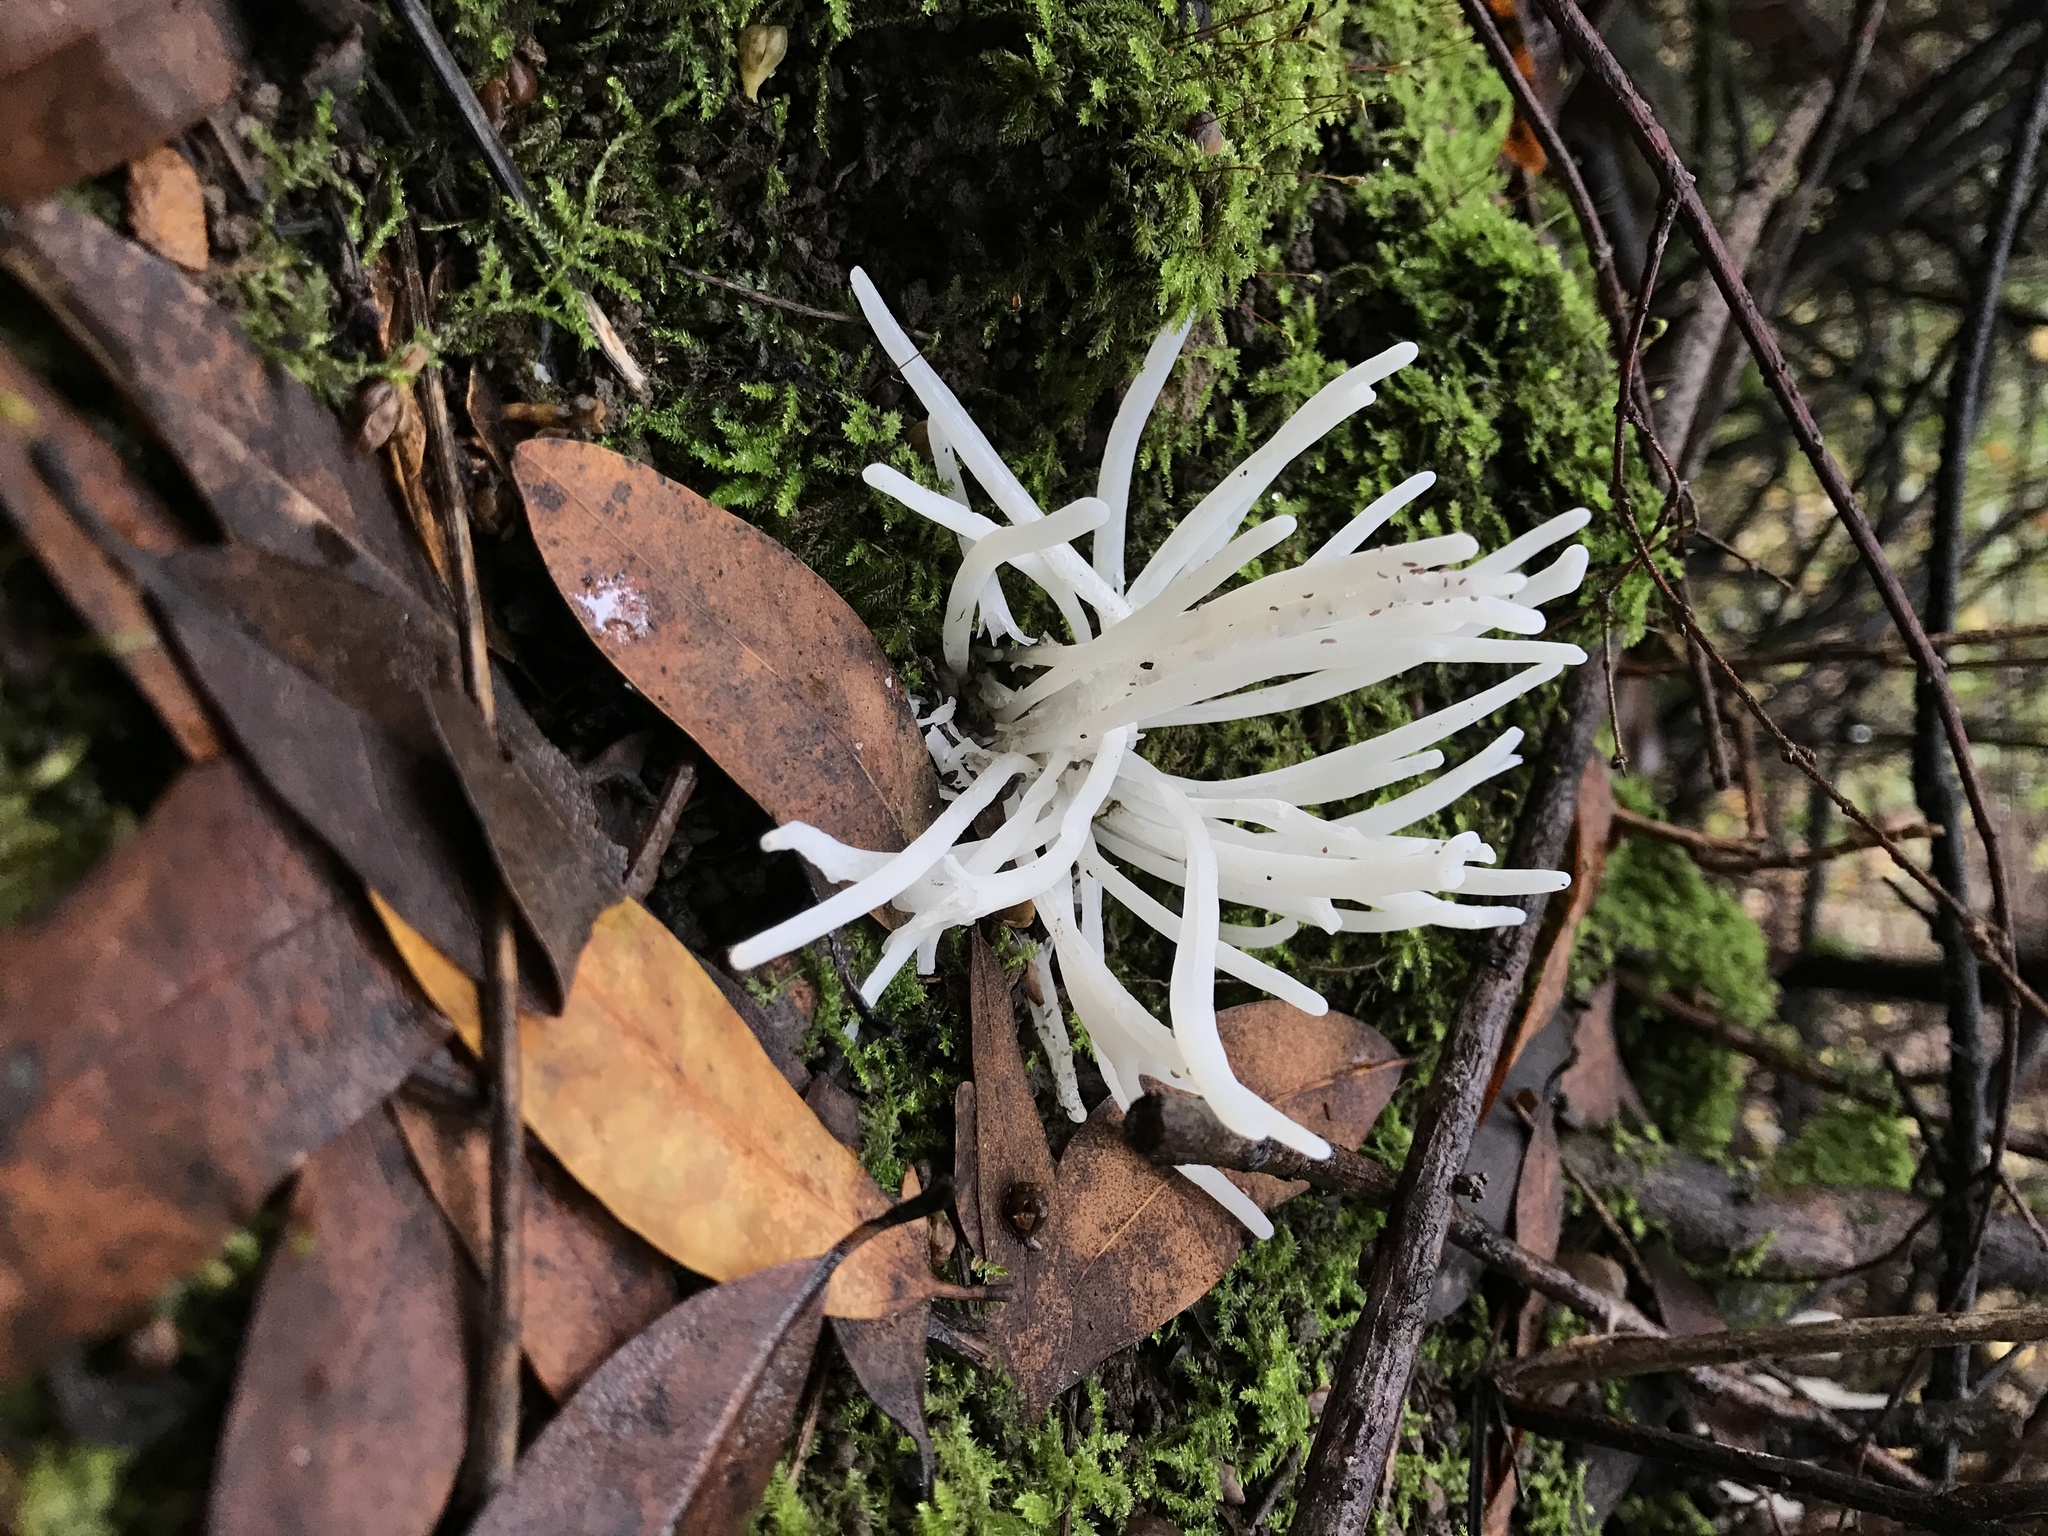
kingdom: Fungi
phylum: Basidiomycota
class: Agaricomycetes
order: Agaricales
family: Clavariaceae
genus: Clavaria
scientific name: Clavaria fragilis
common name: White spindles
